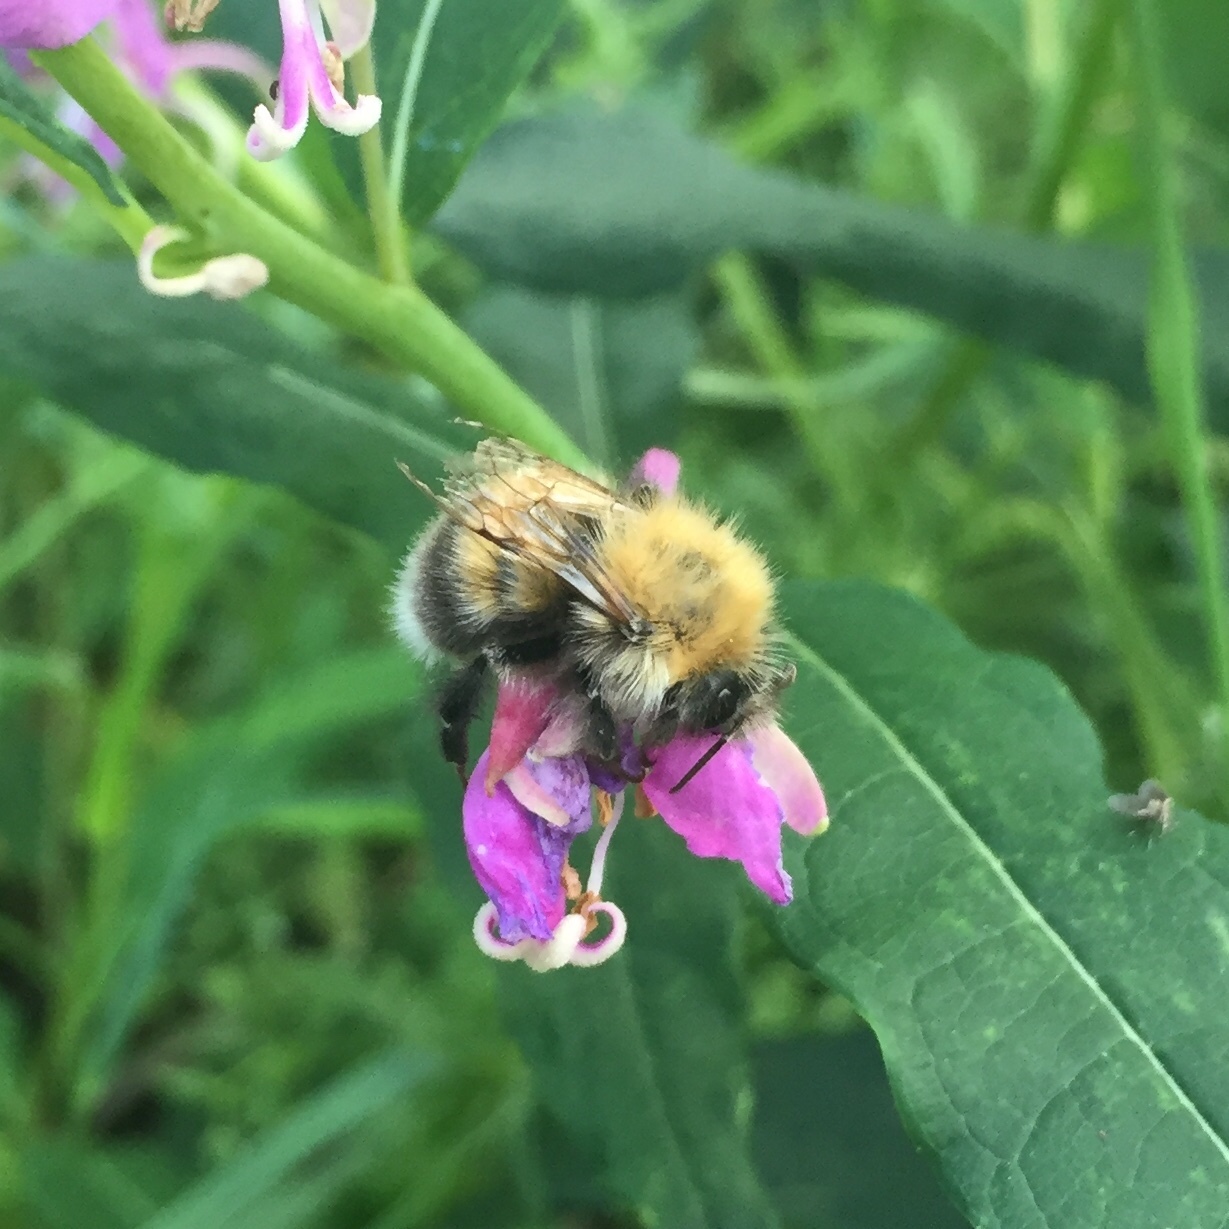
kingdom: Animalia
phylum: Arthropoda
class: Insecta
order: Hymenoptera
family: Apidae
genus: Bombus
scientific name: Bombus hypnorum
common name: New garden bumblebee
